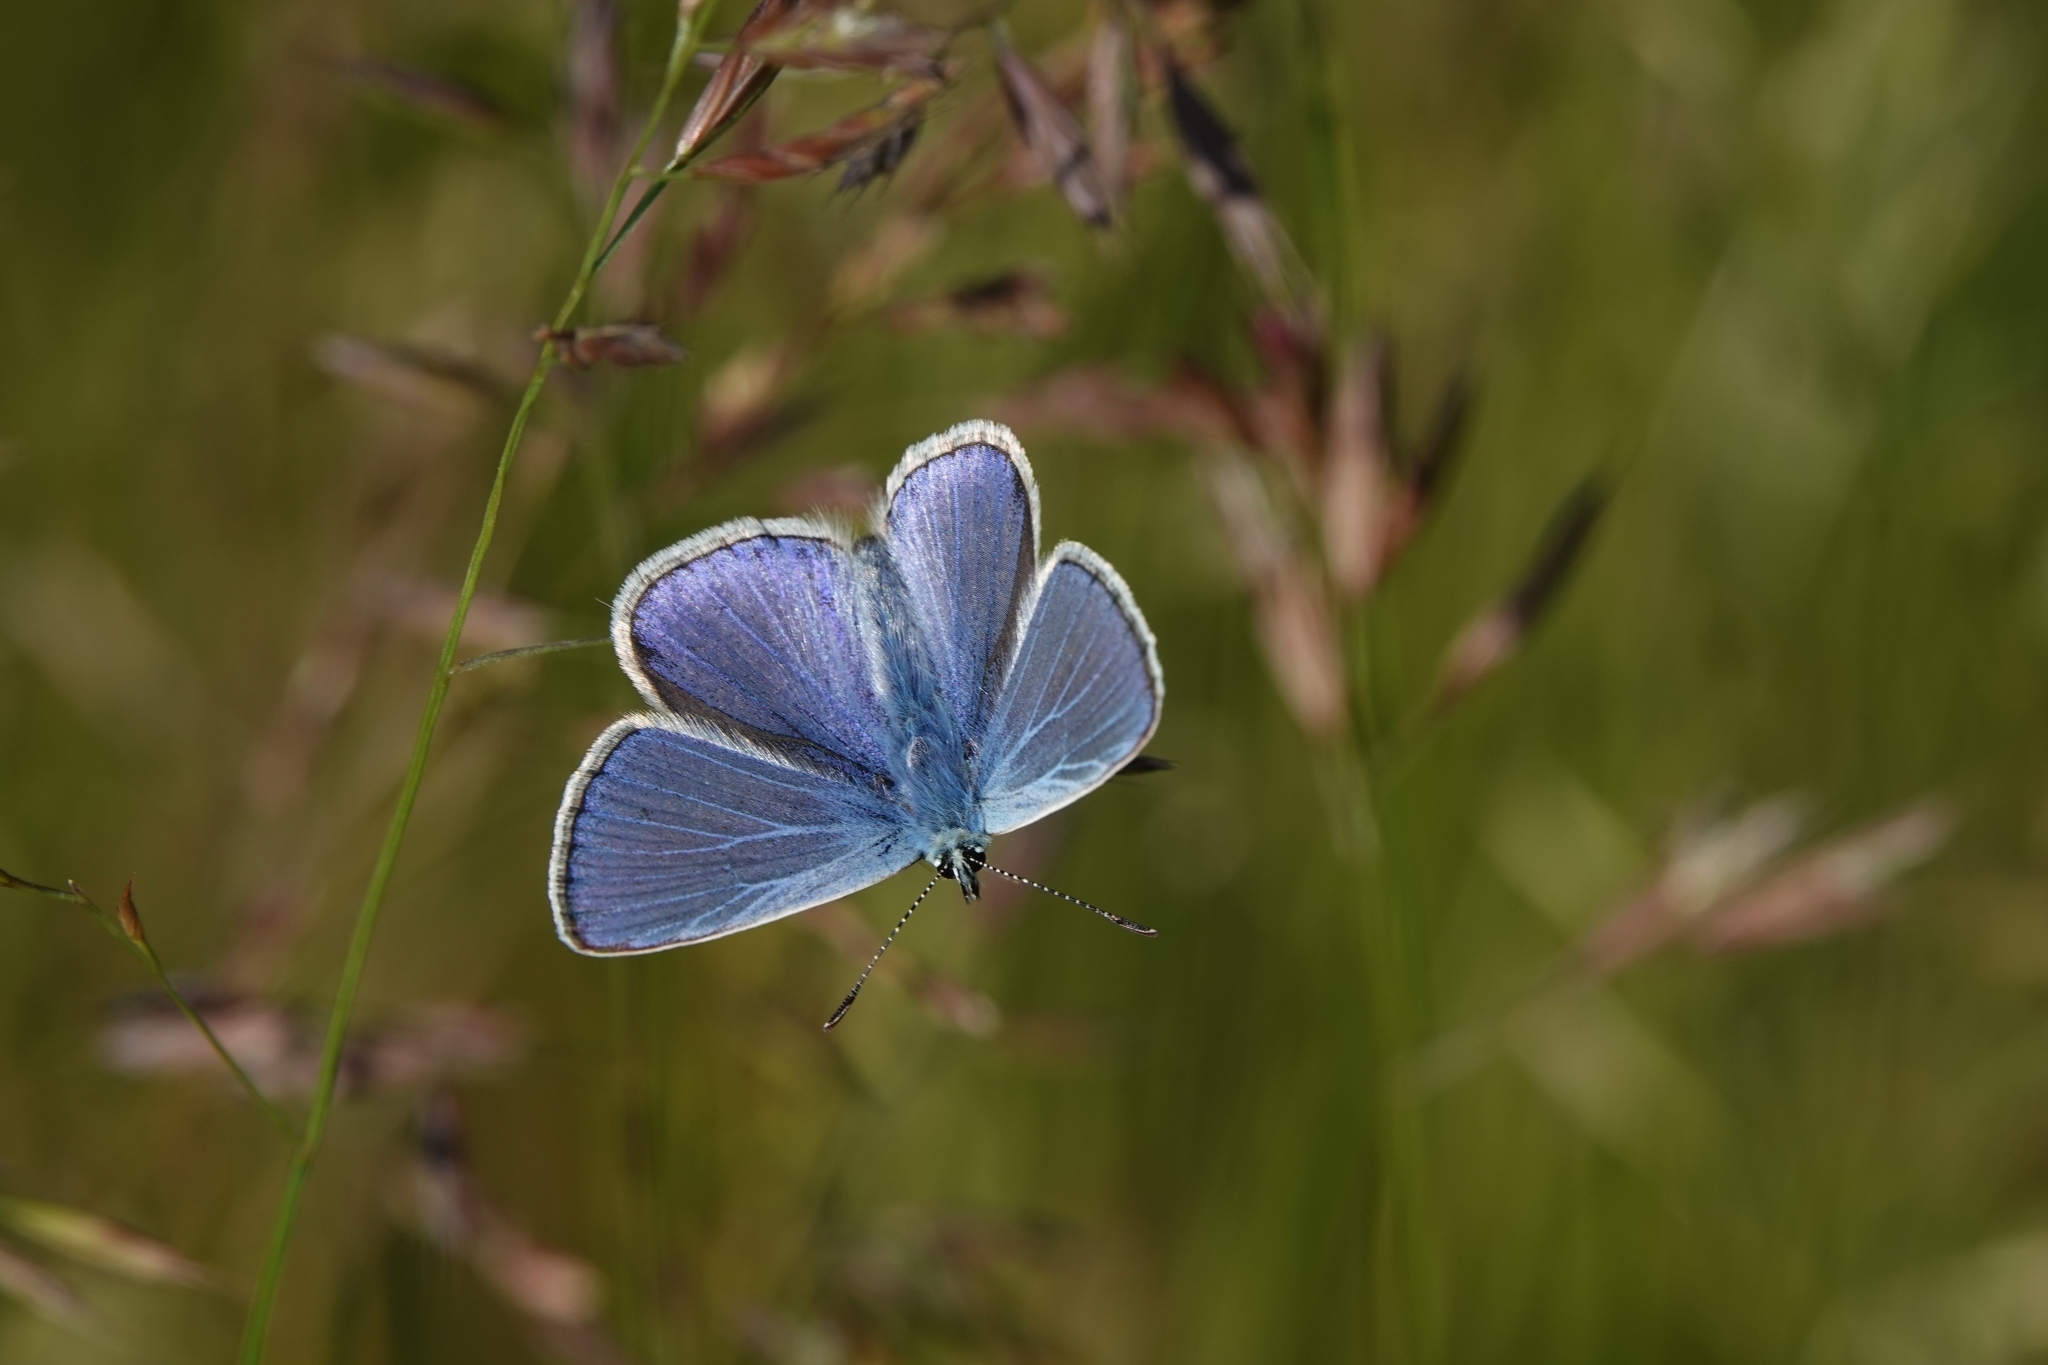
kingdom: Animalia
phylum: Arthropoda
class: Insecta
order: Lepidoptera
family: Lycaenidae
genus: Polyommatus
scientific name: Polyommatus icarus
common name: Common blue
